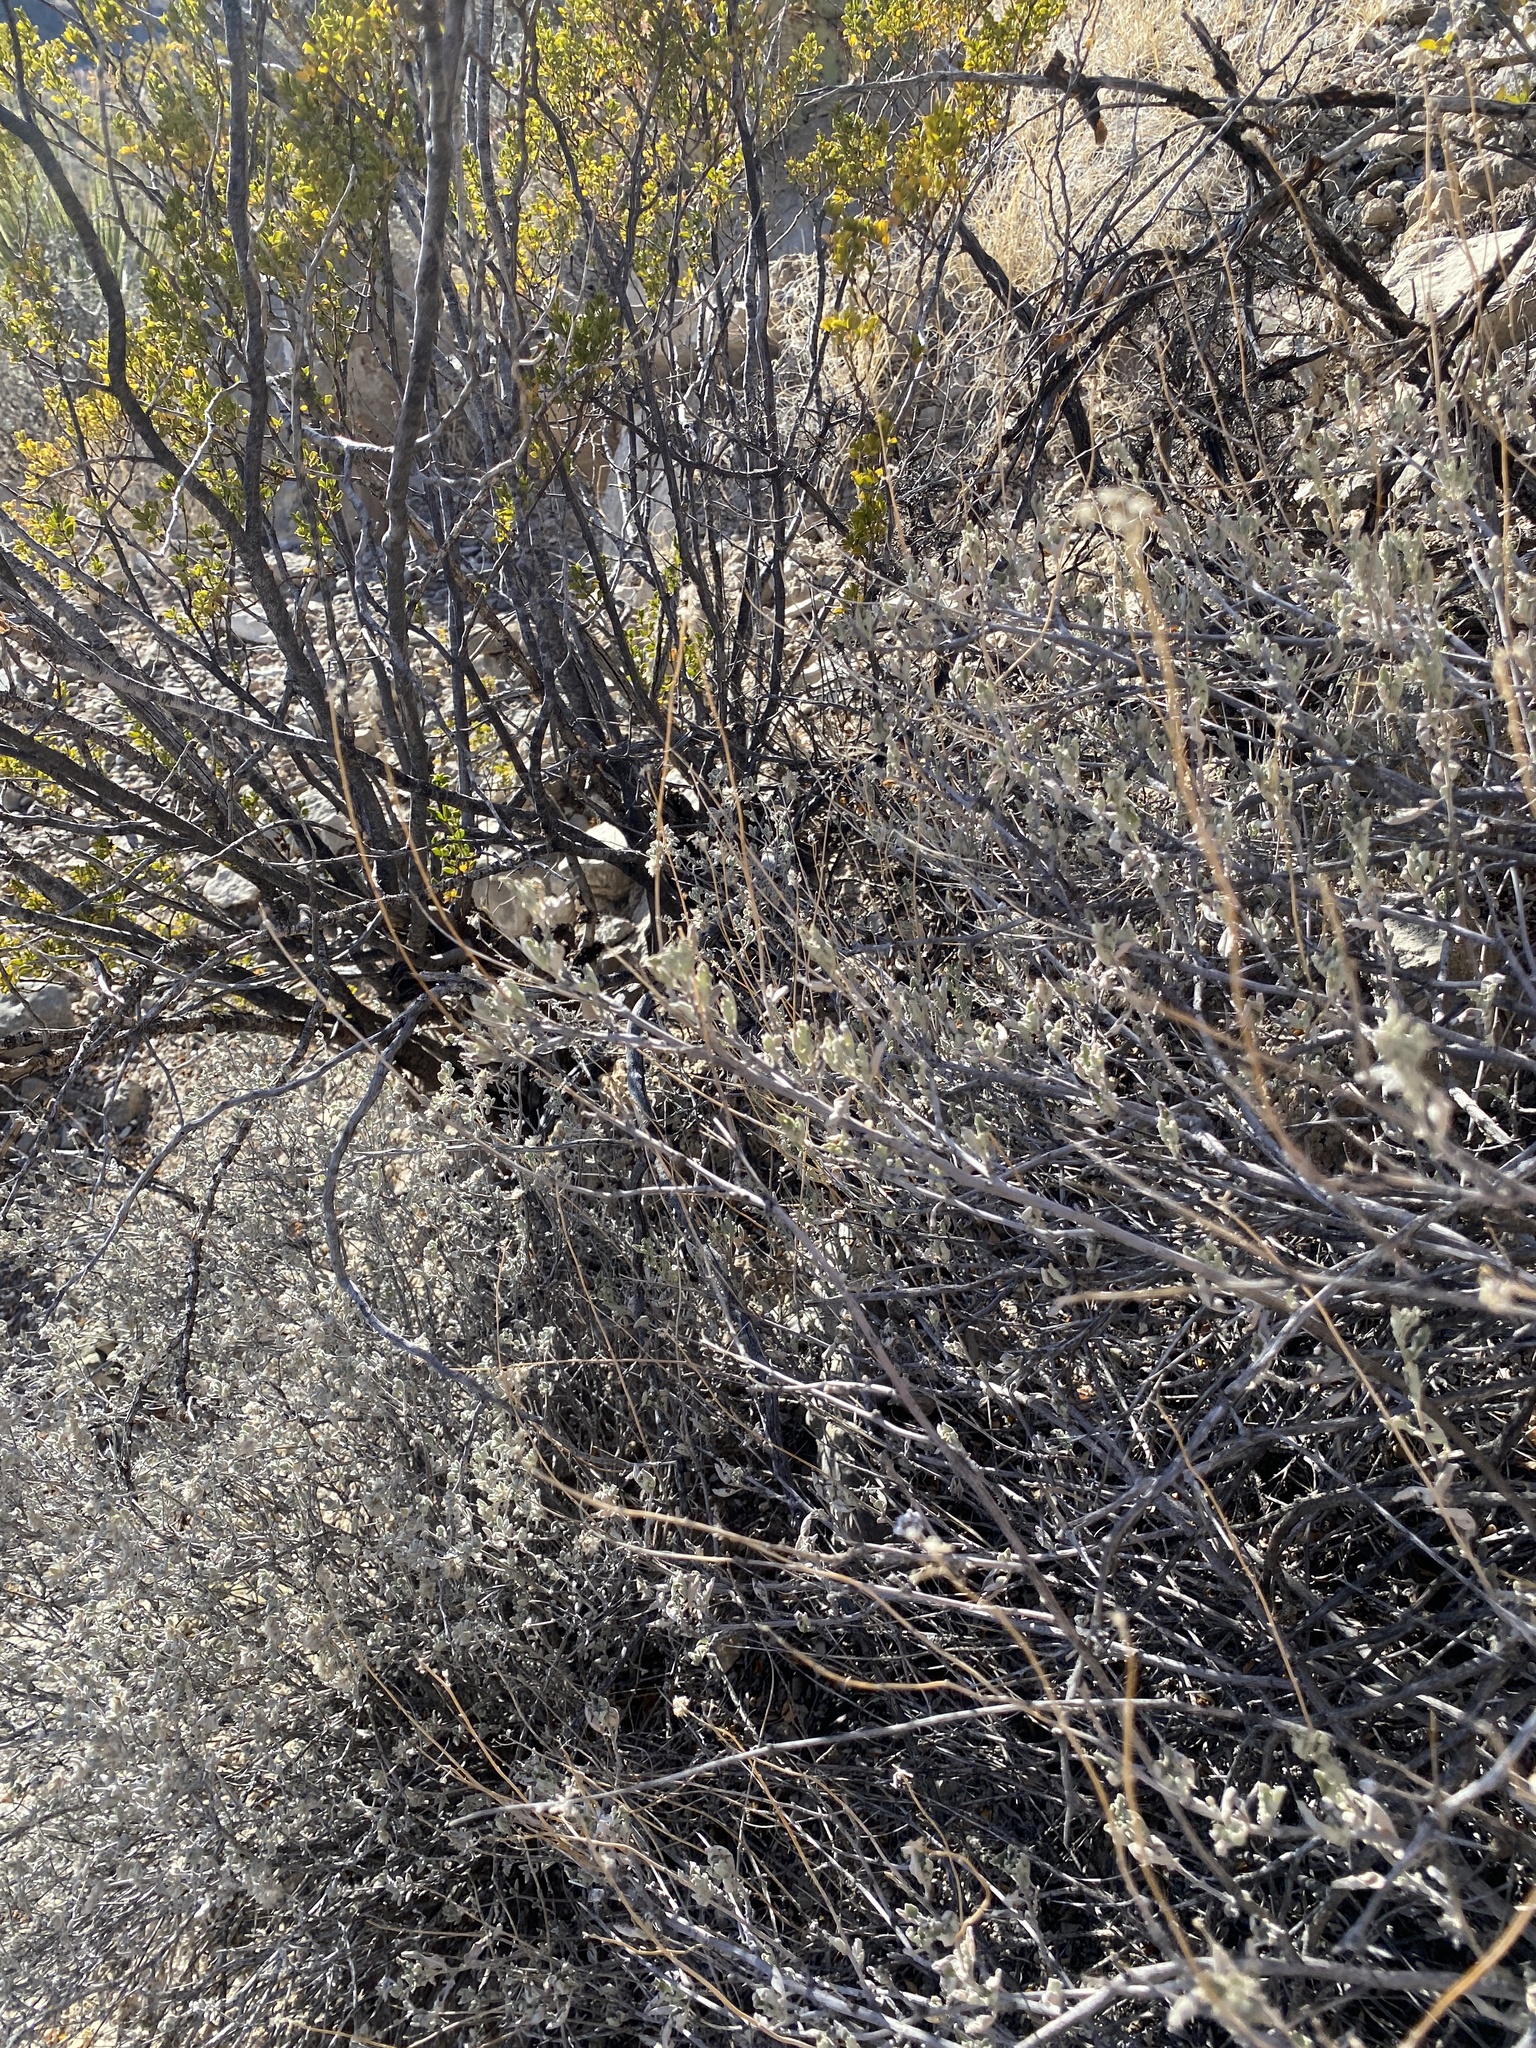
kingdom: Plantae
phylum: Tracheophyta
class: Magnoliopsida
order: Asterales
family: Asteraceae
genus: Parthenium
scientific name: Parthenium incanum
